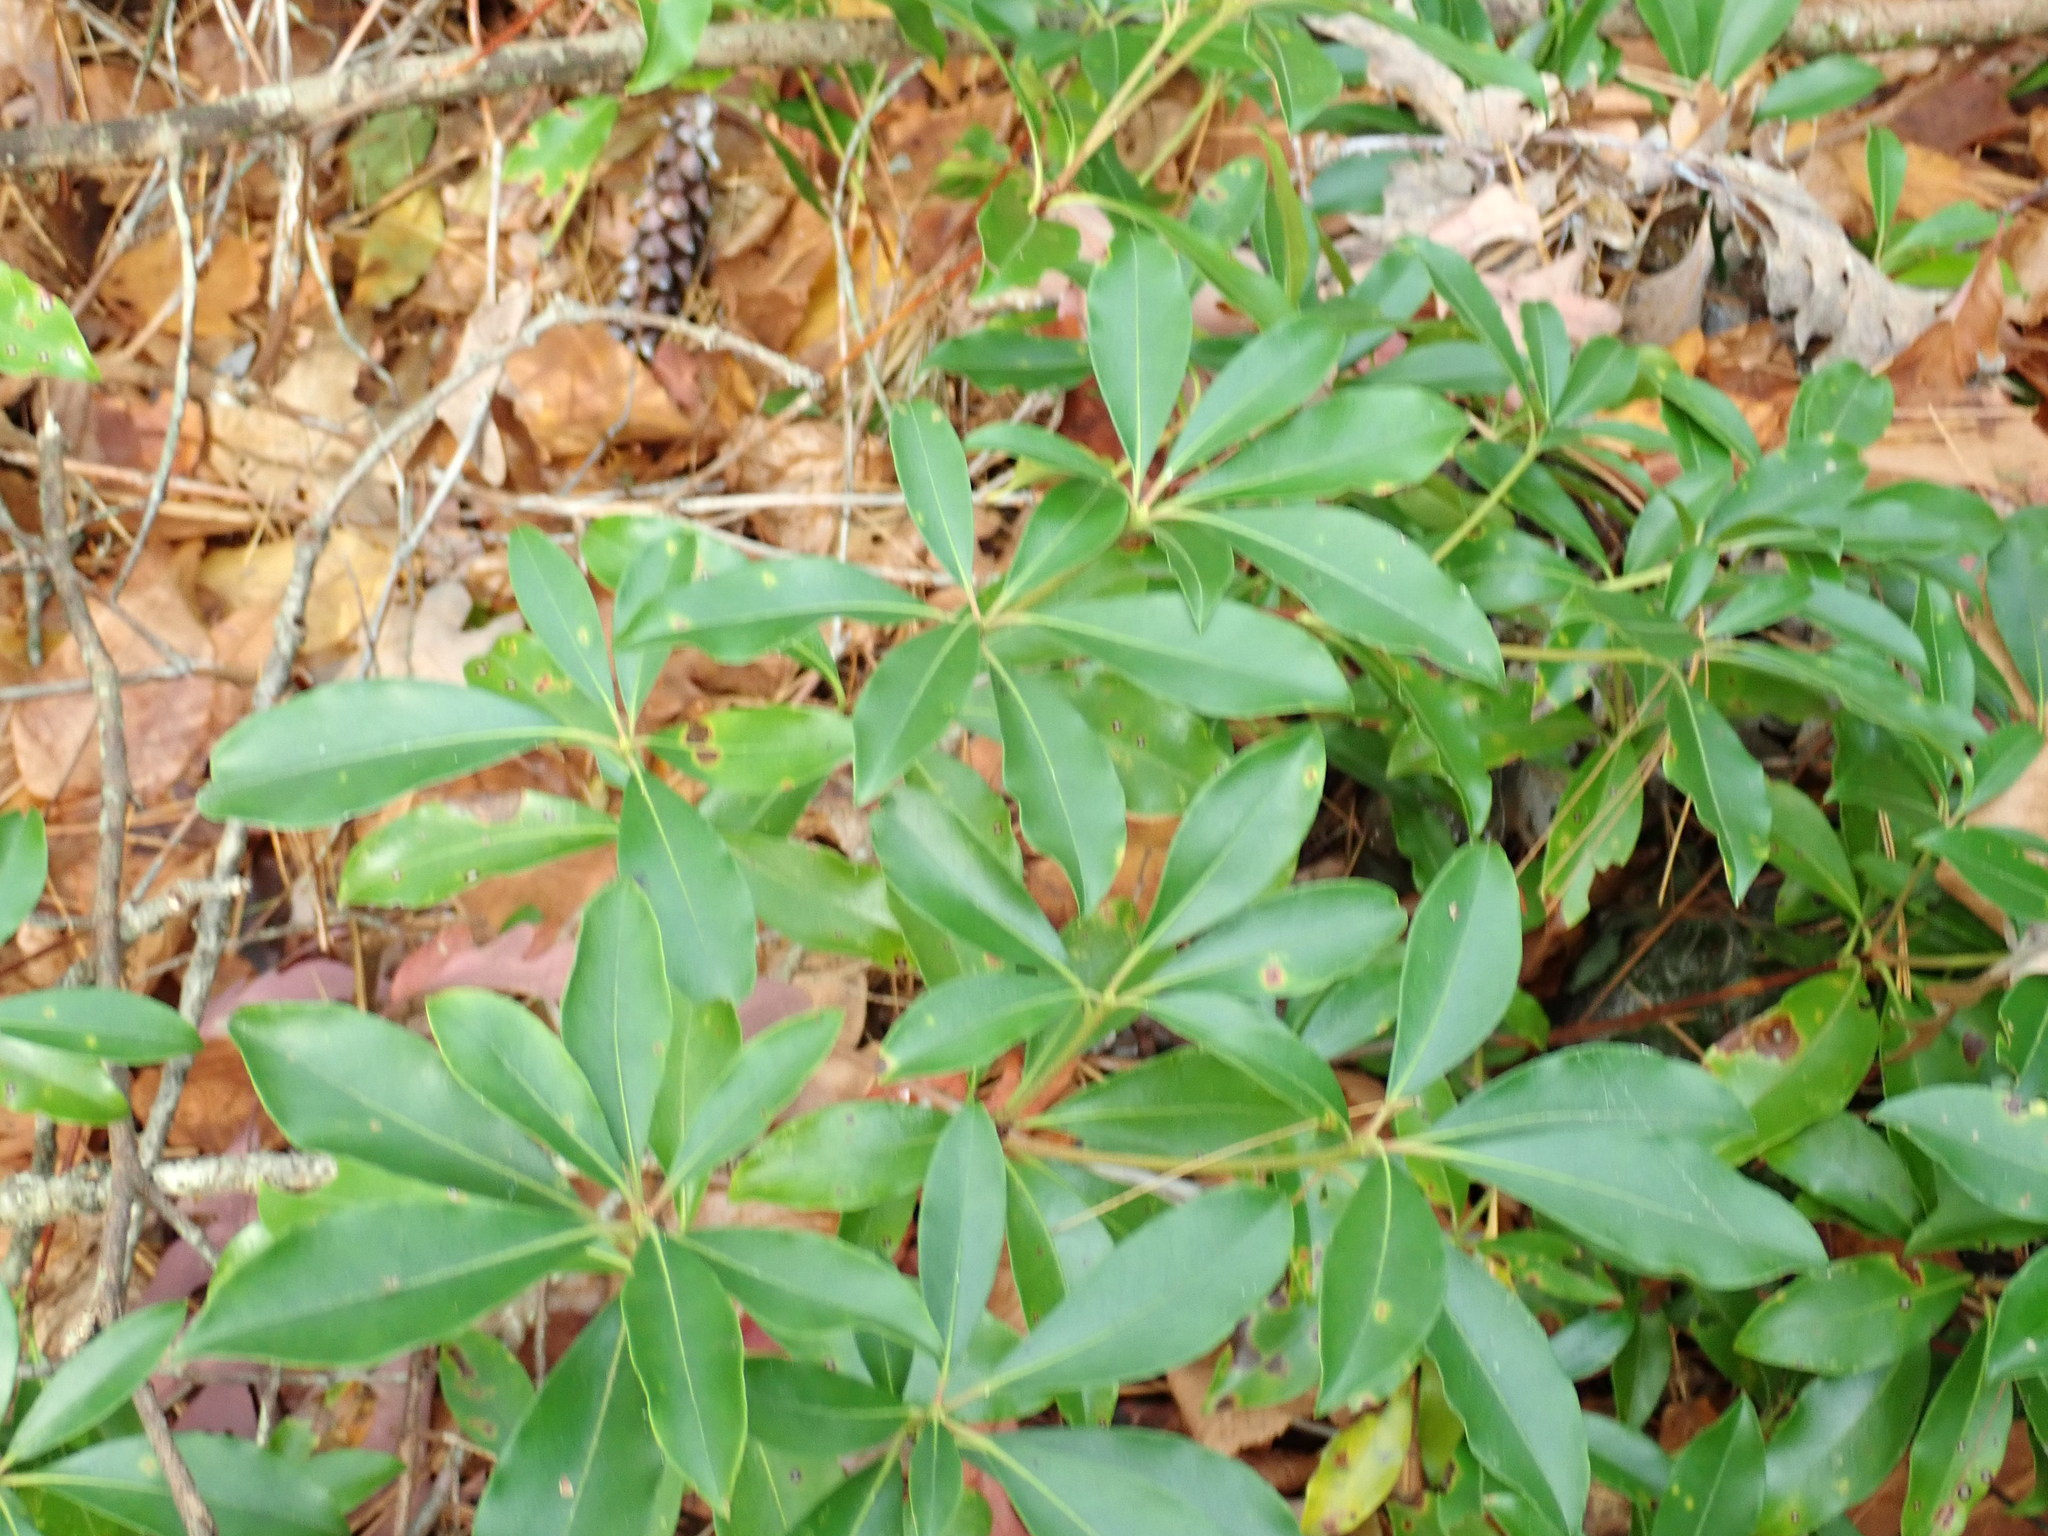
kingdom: Plantae
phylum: Tracheophyta
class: Magnoliopsida
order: Ericales
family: Ericaceae
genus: Kalmia
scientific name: Kalmia latifolia
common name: Mountain-laurel
